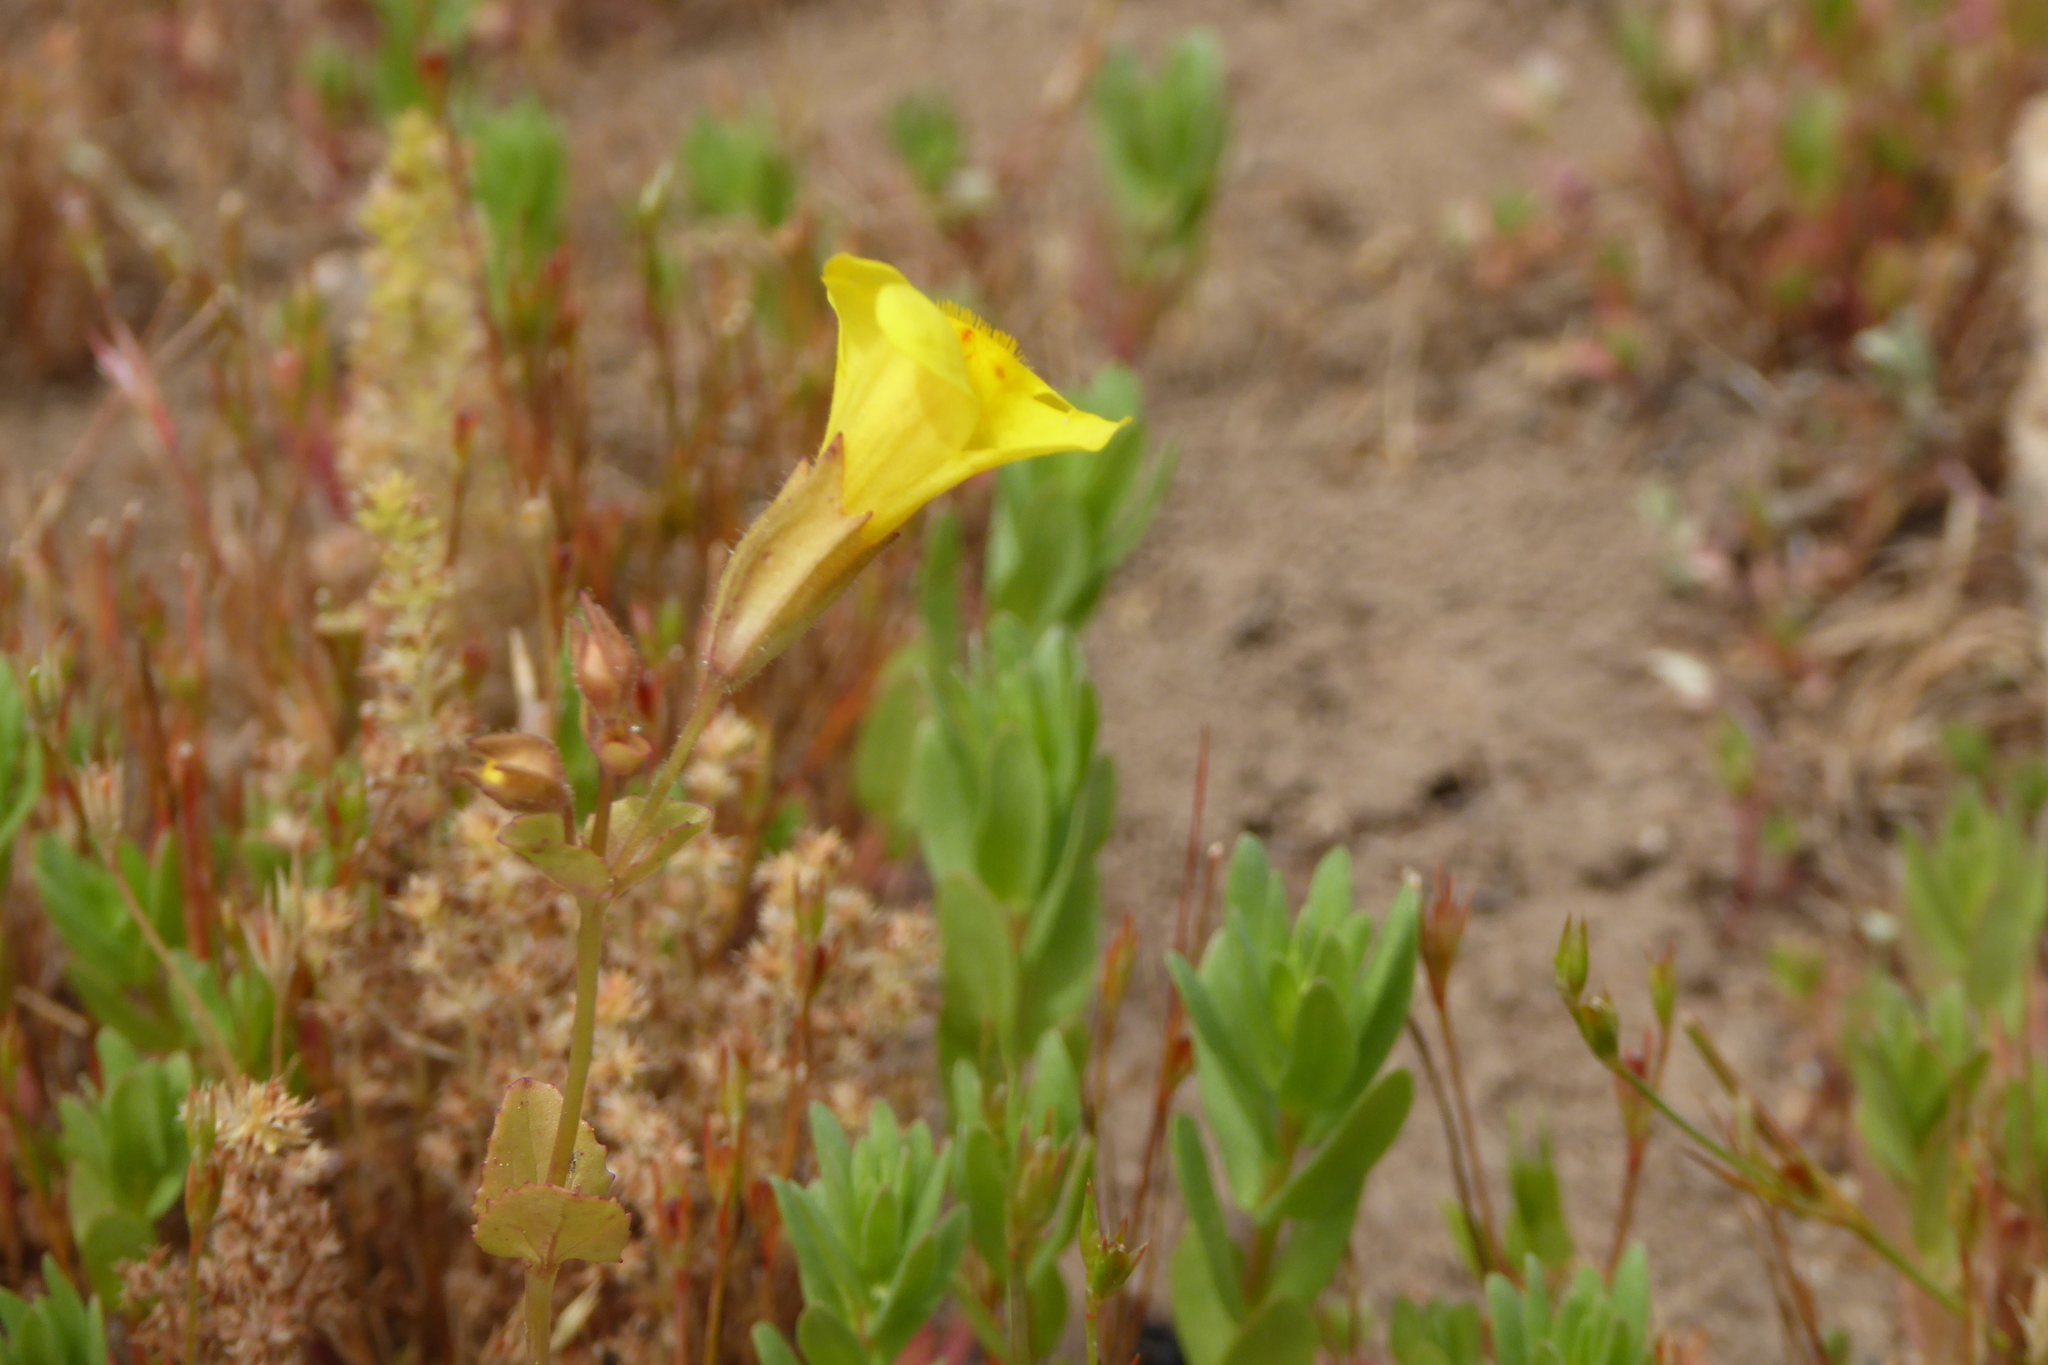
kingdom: Plantae
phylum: Tracheophyta
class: Magnoliopsida
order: Lamiales
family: Phrymaceae
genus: Erythranthe
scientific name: Erythranthe guttata
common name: Monkeyflower
